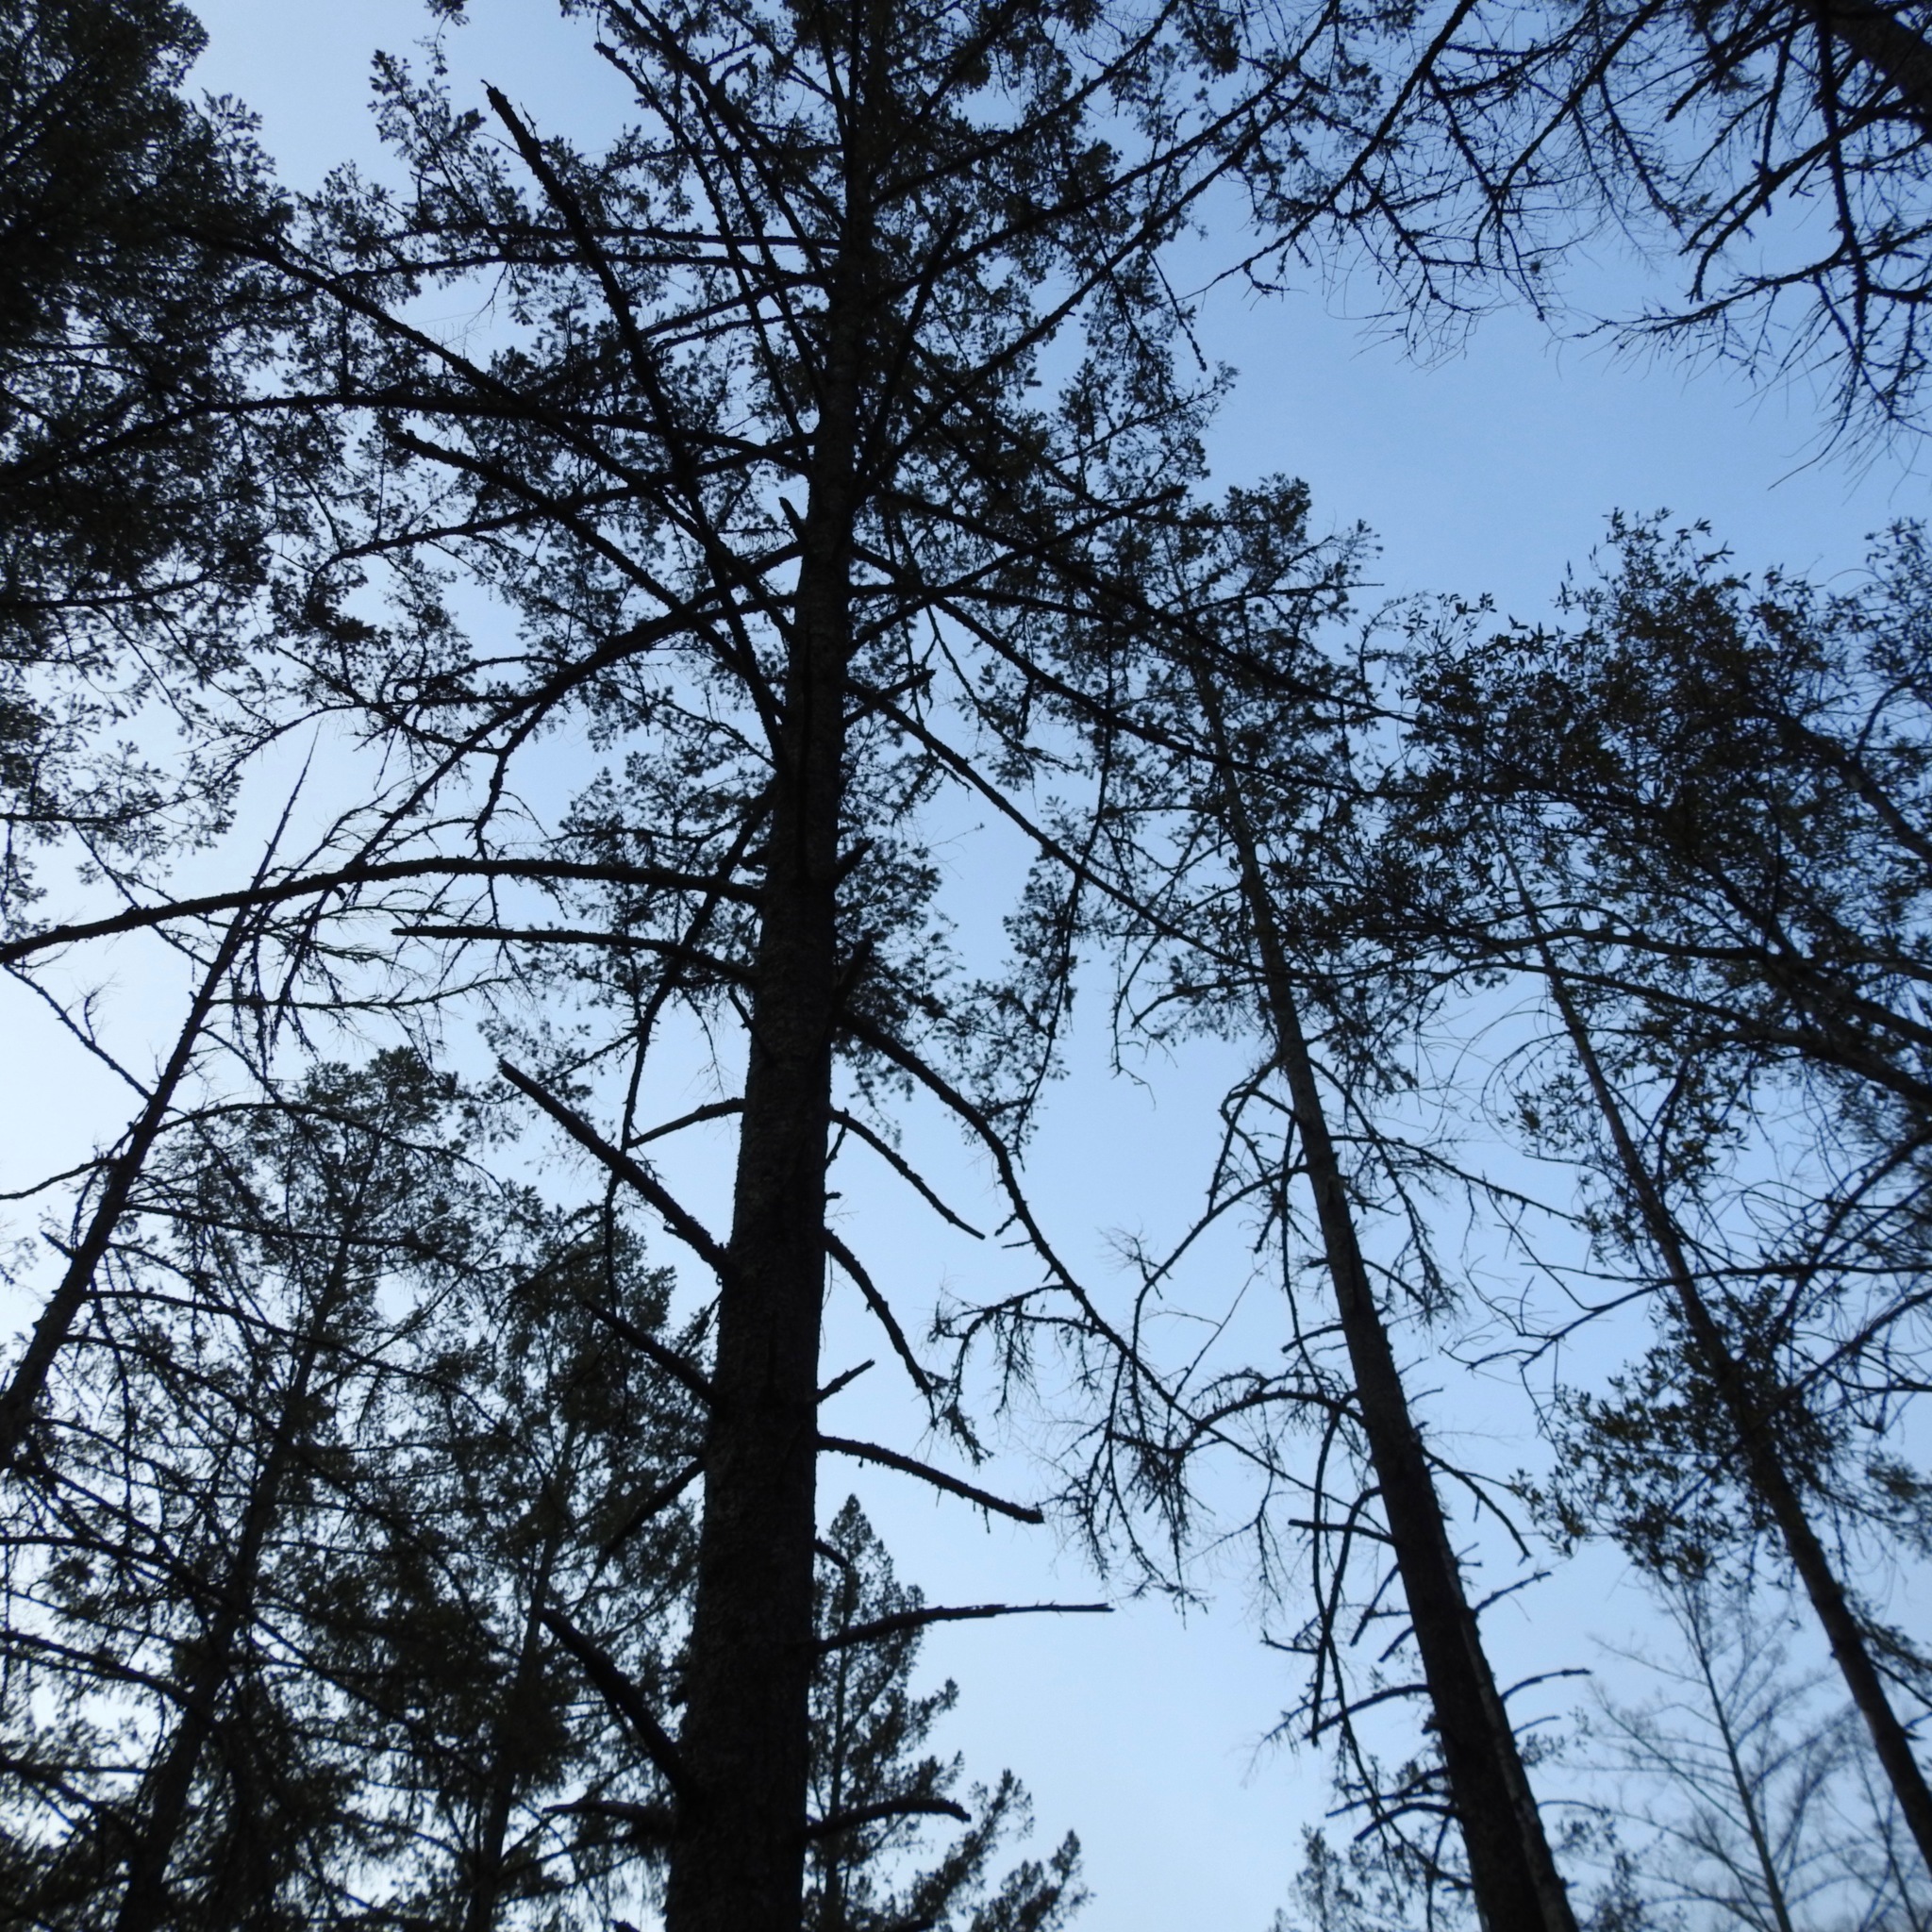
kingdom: Plantae
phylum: Tracheophyta
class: Pinopsida
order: Pinales
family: Pinaceae
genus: Pseudotsuga
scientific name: Pseudotsuga menziesii
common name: Douglas fir
